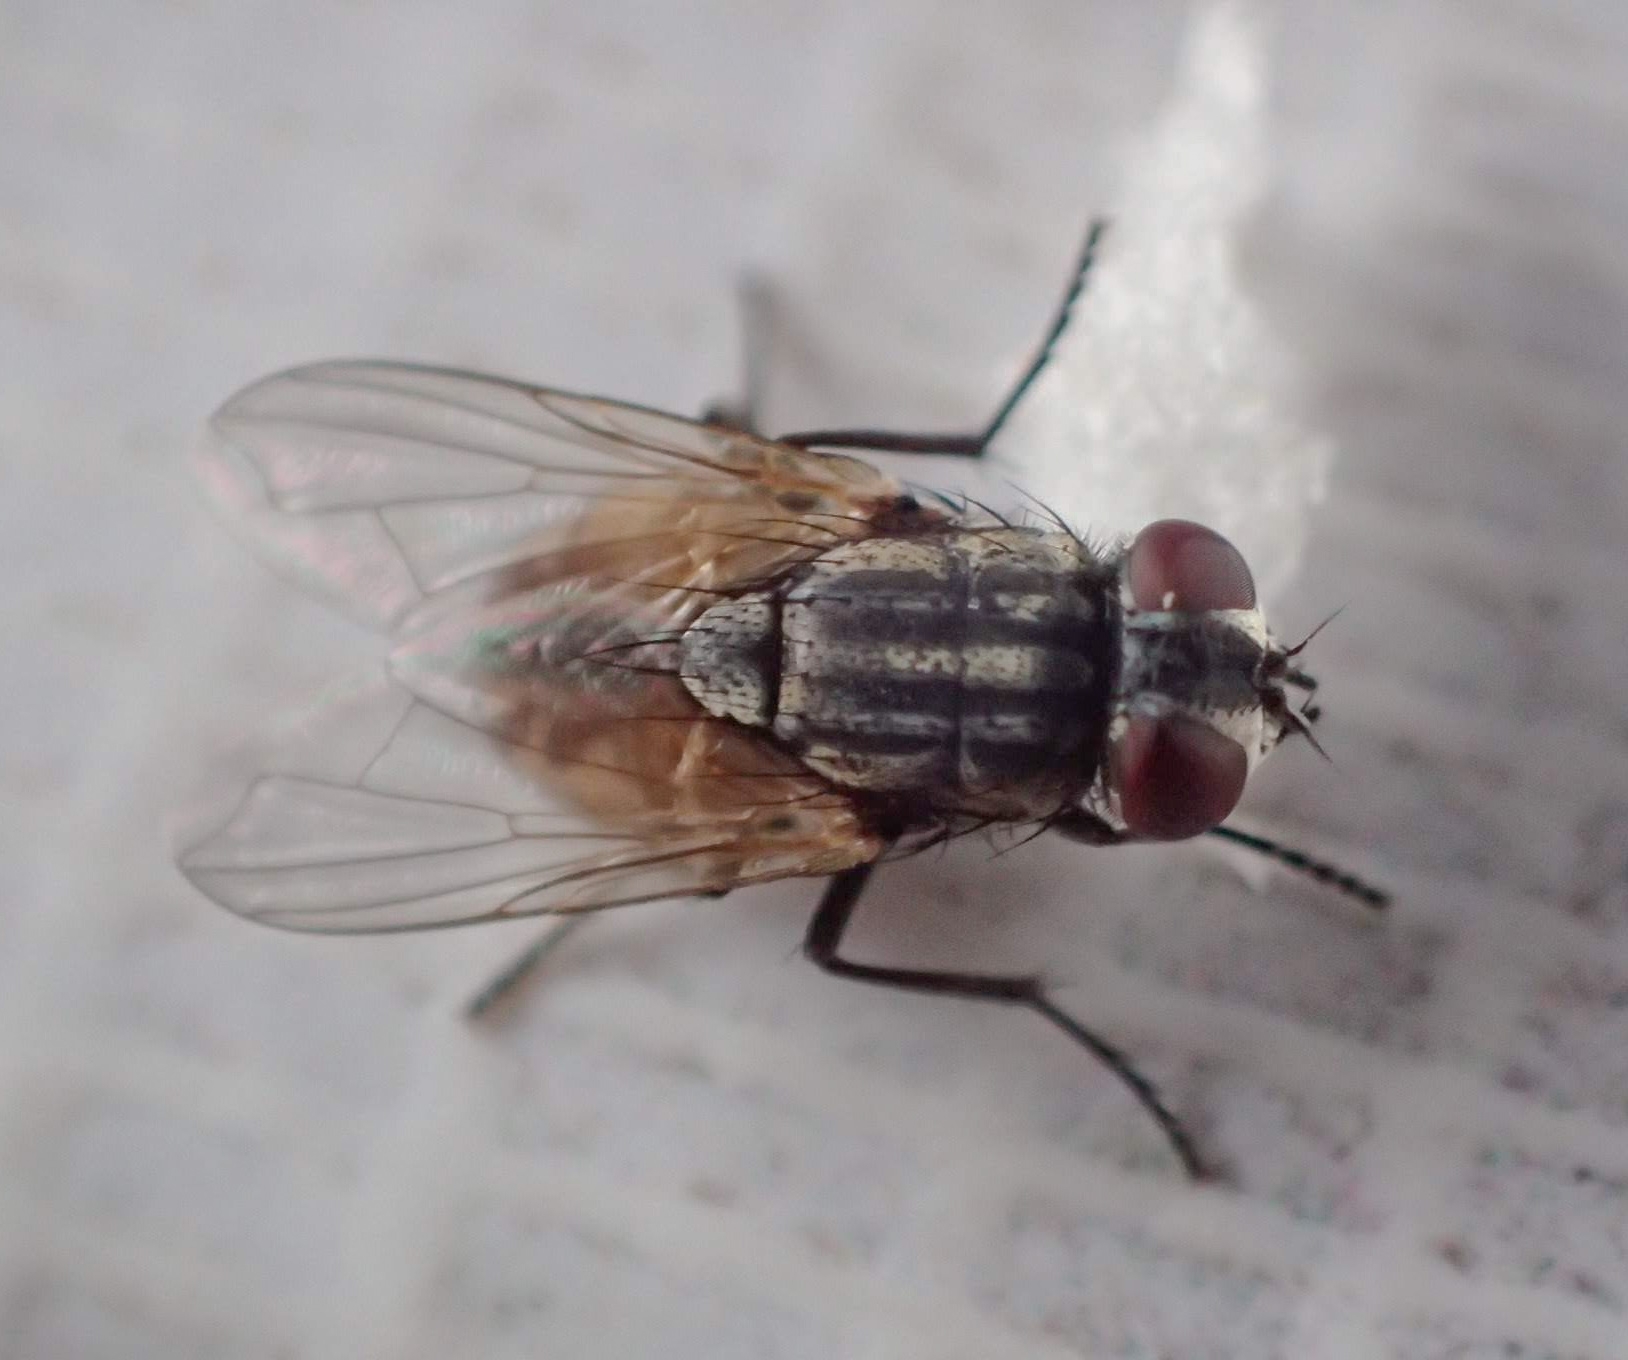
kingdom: Animalia
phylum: Arthropoda
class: Insecta
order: Diptera
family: Muscidae
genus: Musca
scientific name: Musca domestica
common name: House fly
